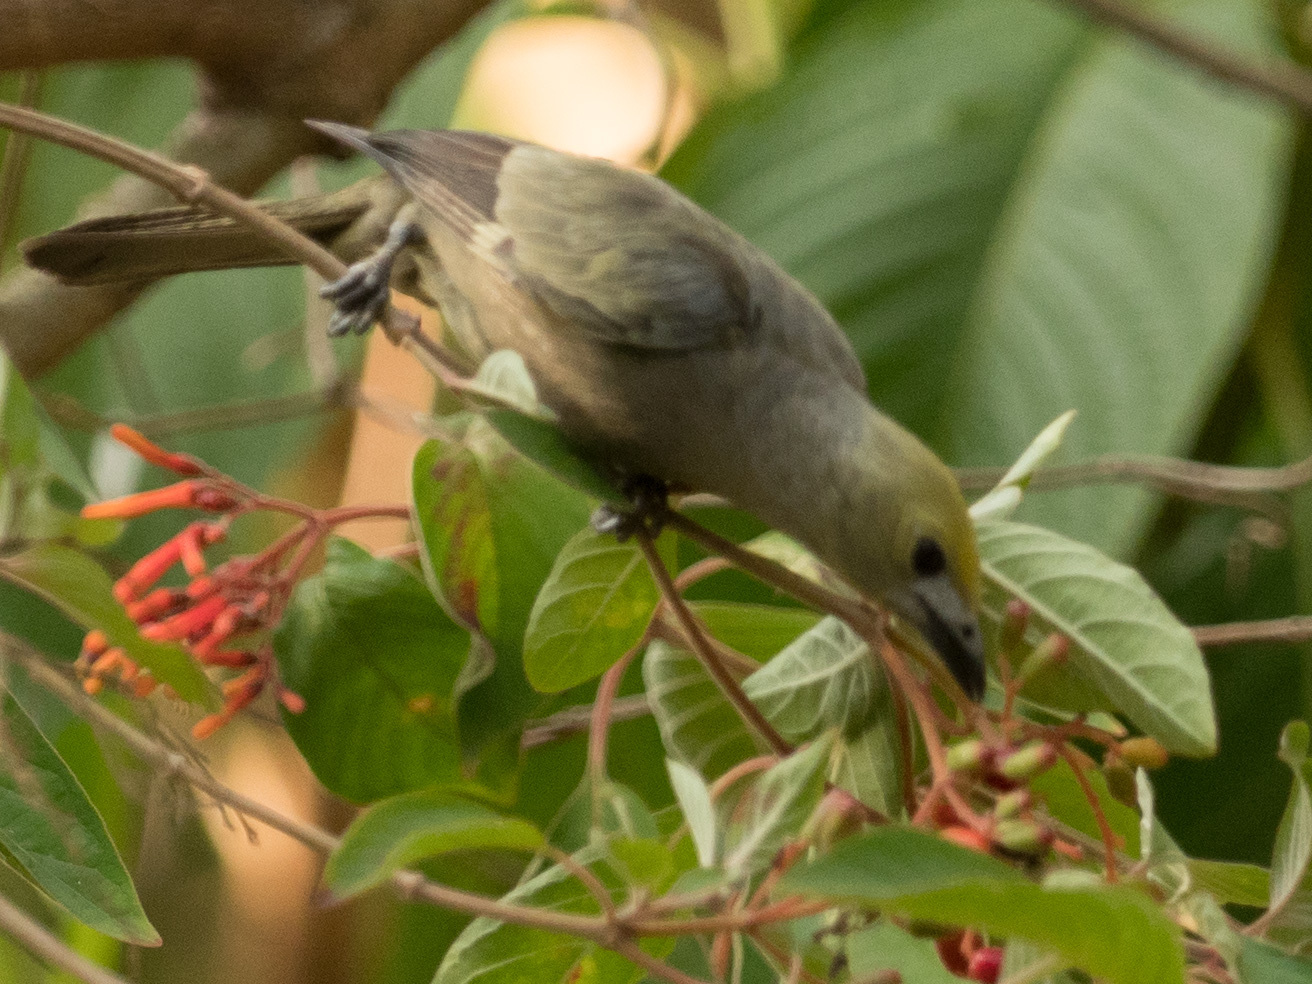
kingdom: Animalia
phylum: Chordata
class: Aves
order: Passeriformes
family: Thraupidae
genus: Thraupis
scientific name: Thraupis palmarum
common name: Palm tanager
